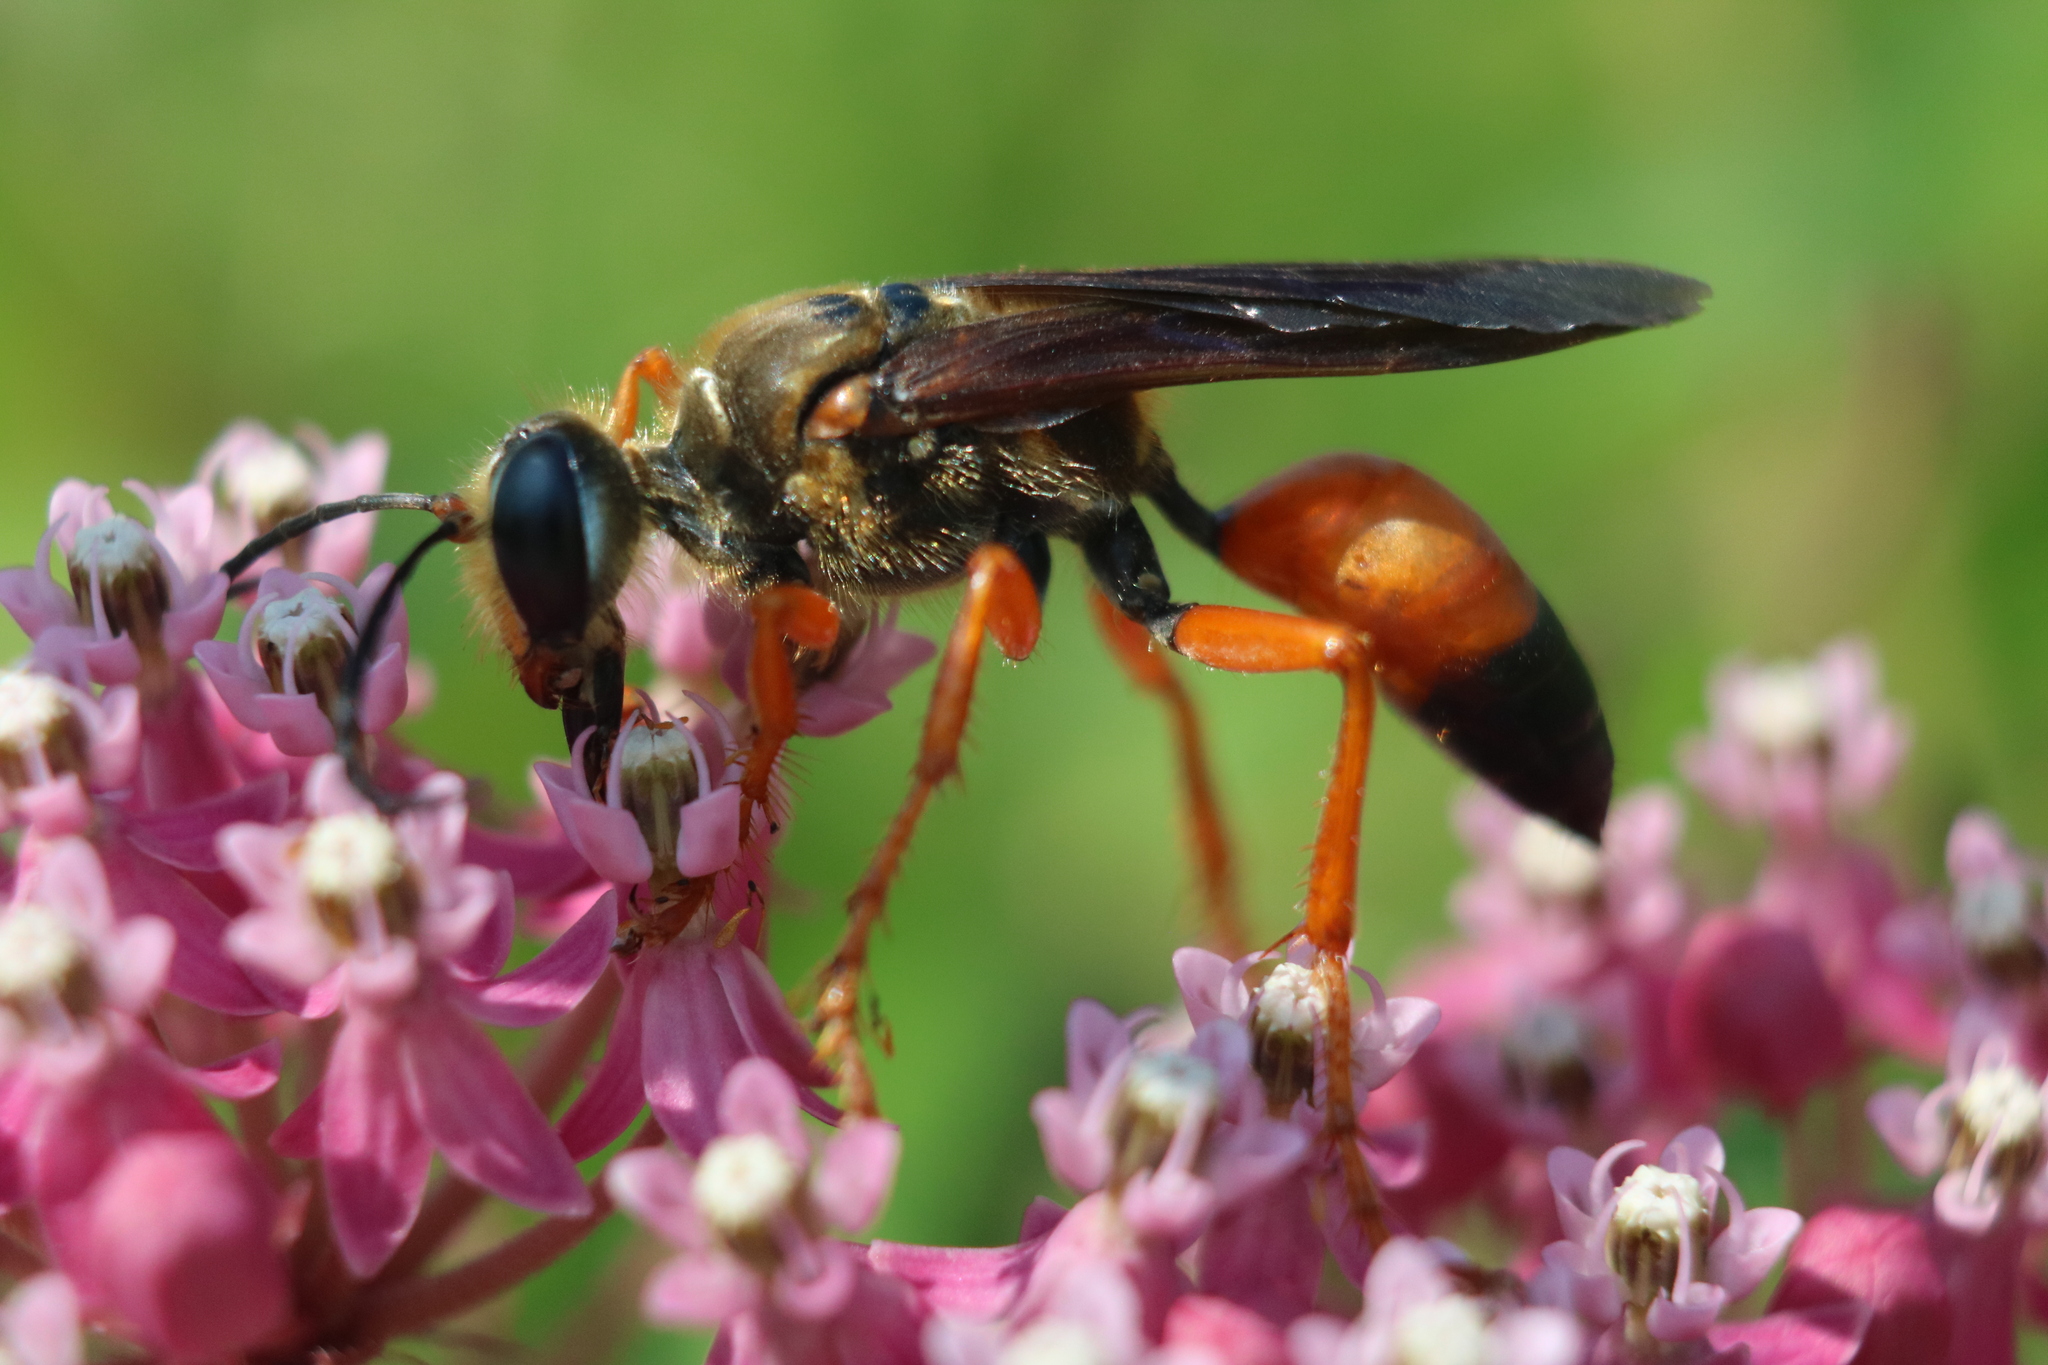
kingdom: Animalia
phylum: Arthropoda
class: Insecta
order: Hymenoptera
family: Sphecidae
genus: Sphex
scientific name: Sphex ichneumoneus
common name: Great golden digger wasp
